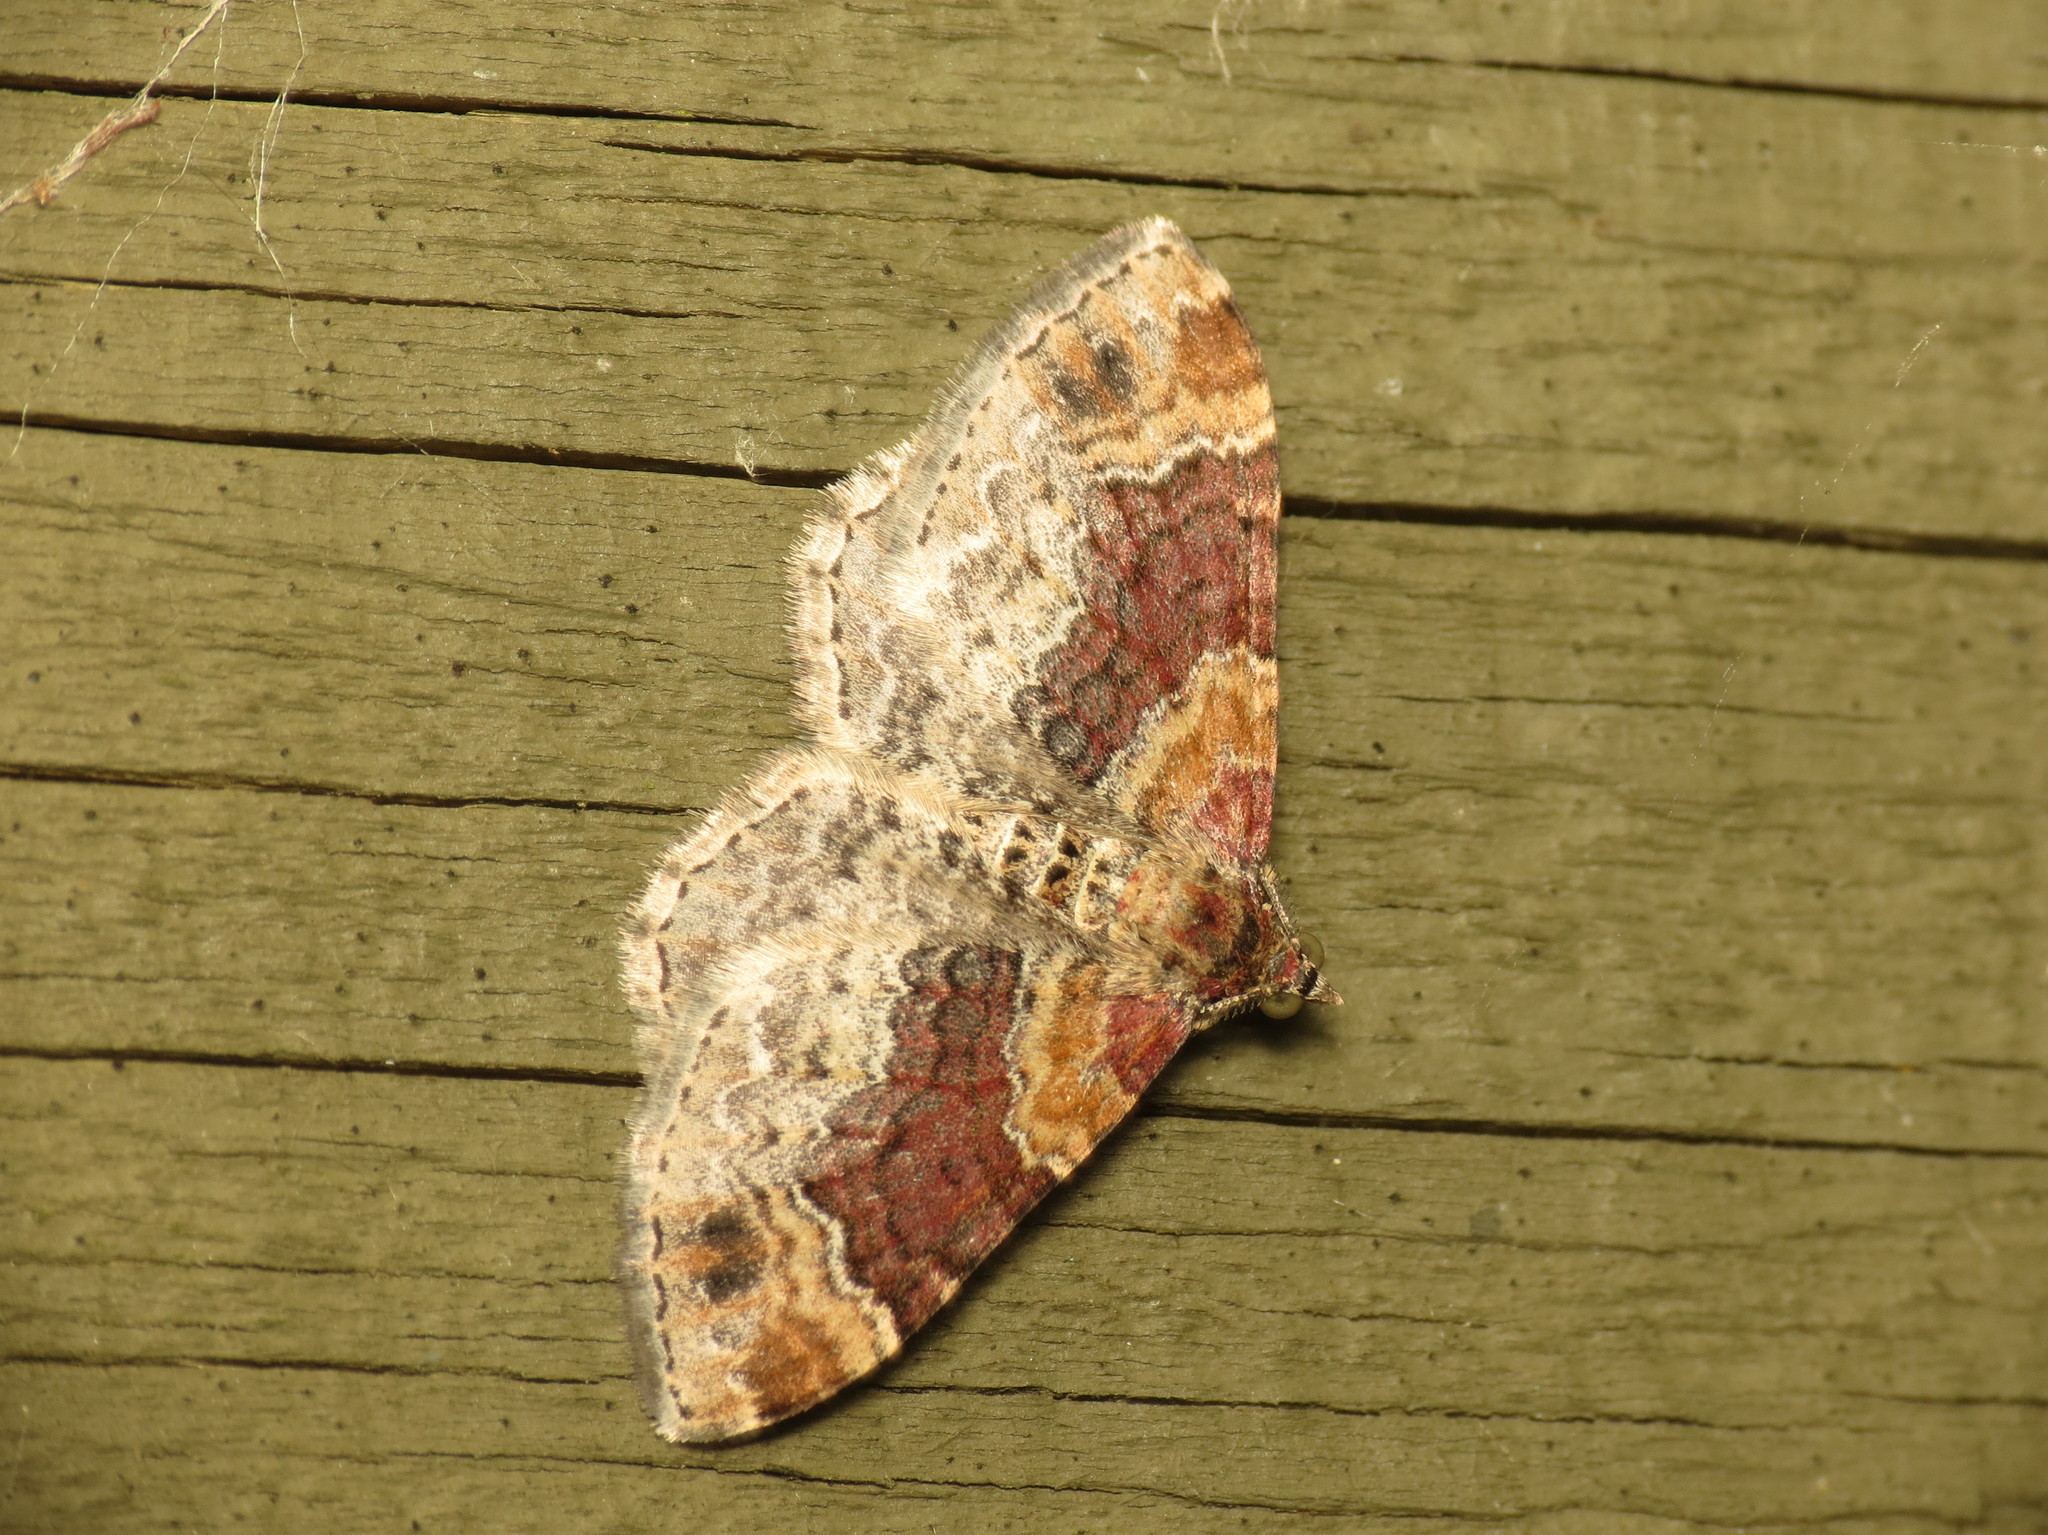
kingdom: Animalia
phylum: Arthropoda
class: Insecta
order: Lepidoptera
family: Geometridae
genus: Xanthorhoe
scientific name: Xanthorhoe spadicearia
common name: Red twin-spot carpet
